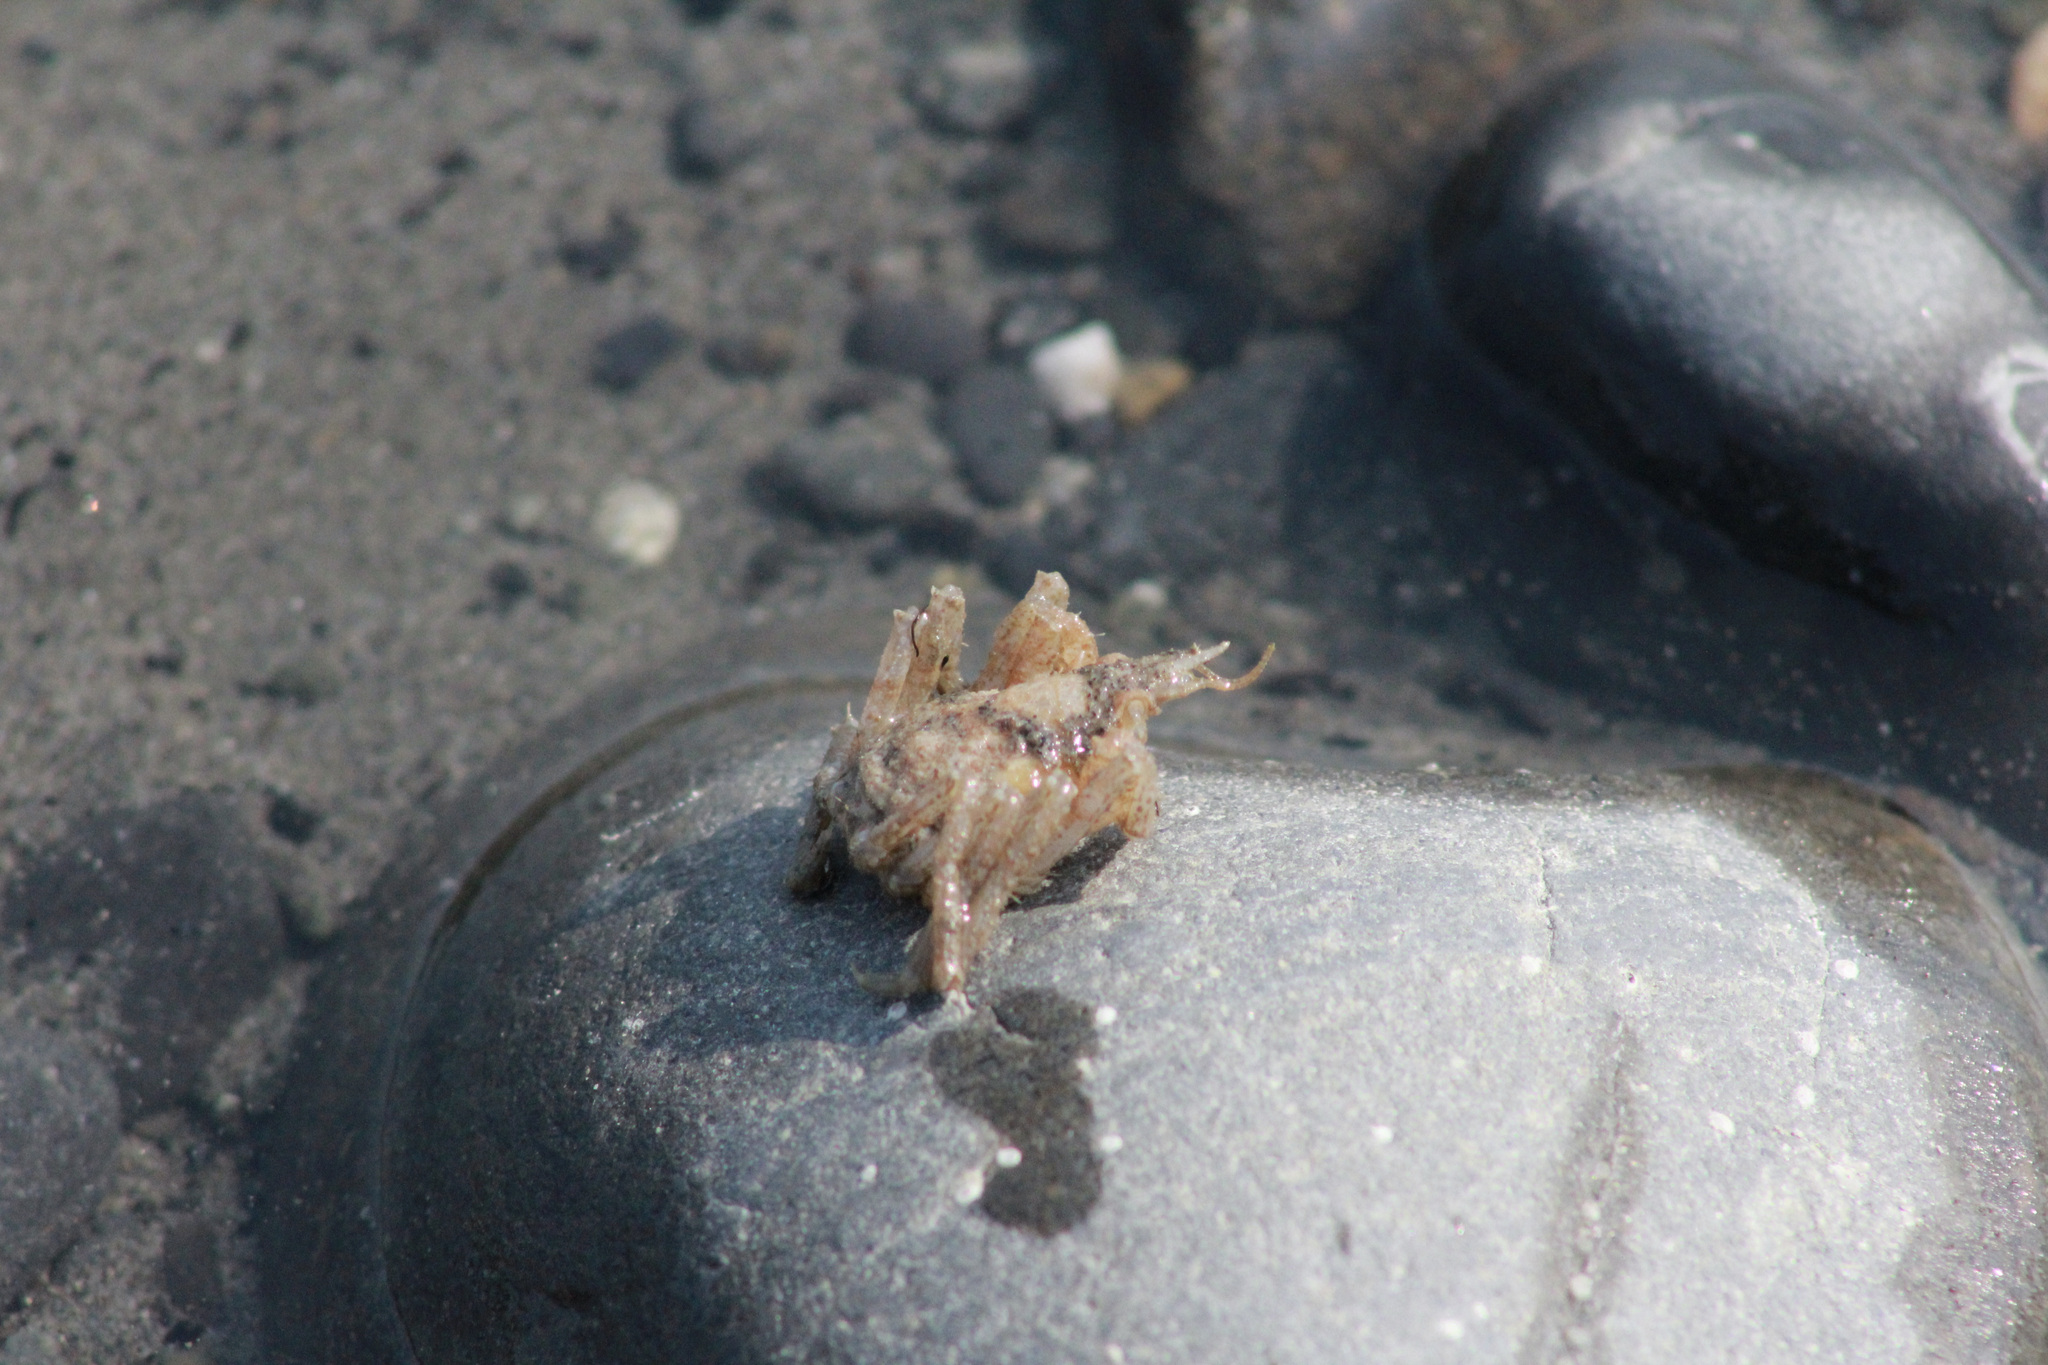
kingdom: Animalia
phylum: Arthropoda
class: Malacostraca
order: Decapoda
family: Oregoniidae
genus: Oregonia
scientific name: Oregonia gracilis
